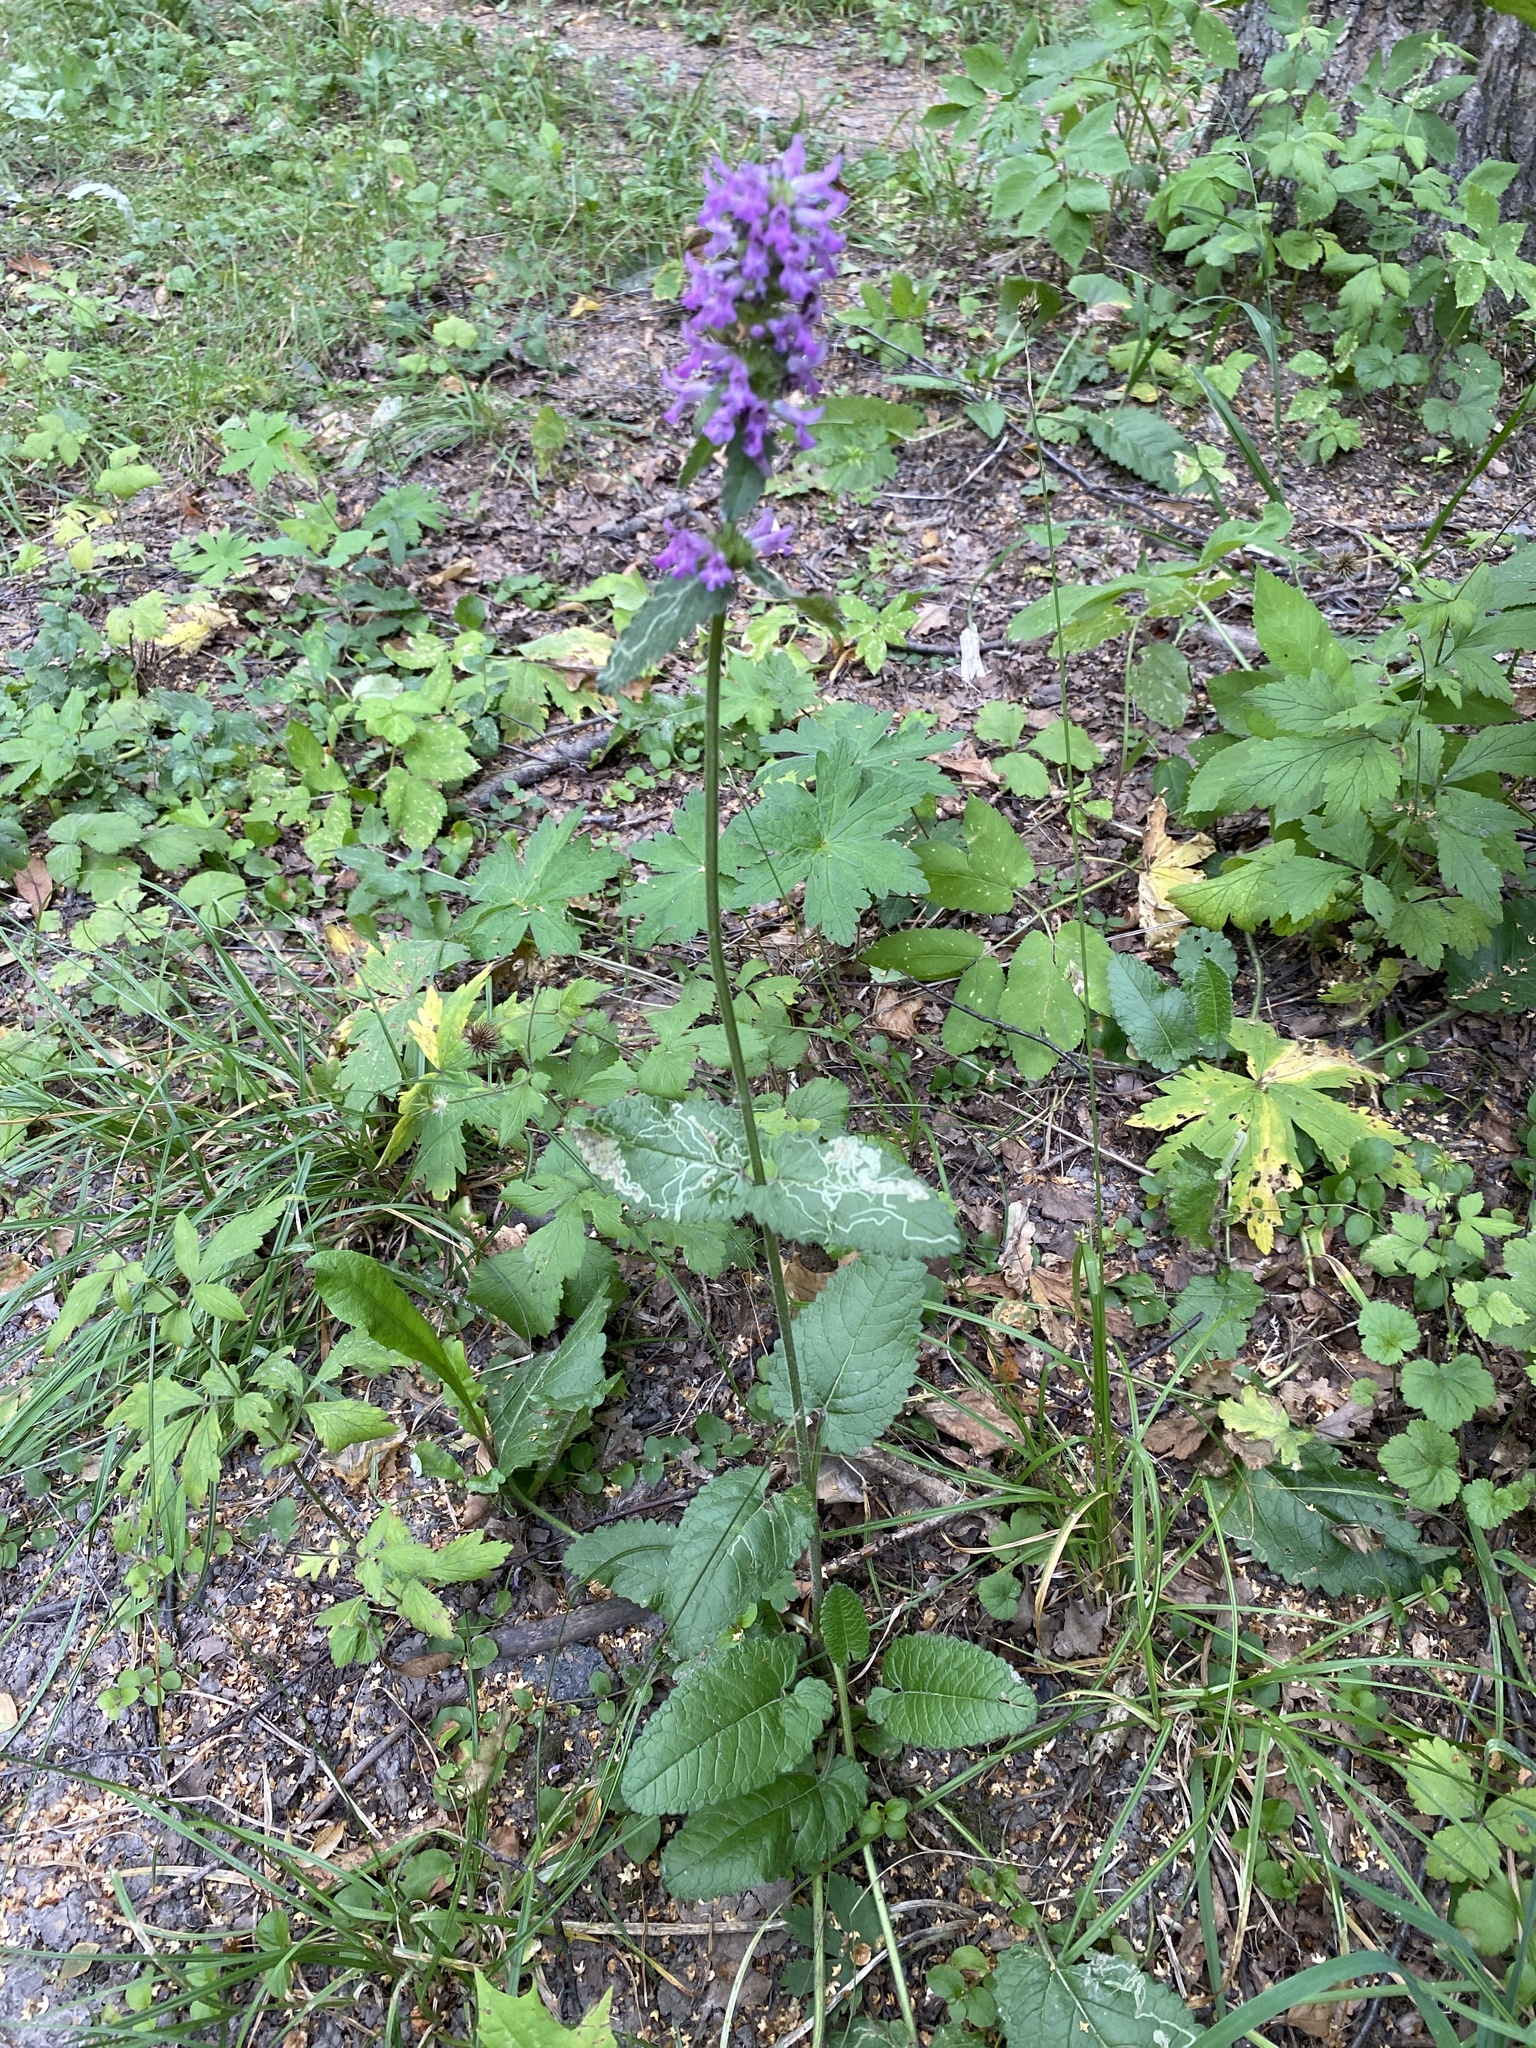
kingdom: Plantae
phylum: Tracheophyta
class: Magnoliopsida
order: Lamiales
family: Lamiaceae
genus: Betonica
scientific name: Betonica officinalis
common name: Bishop's-wort
